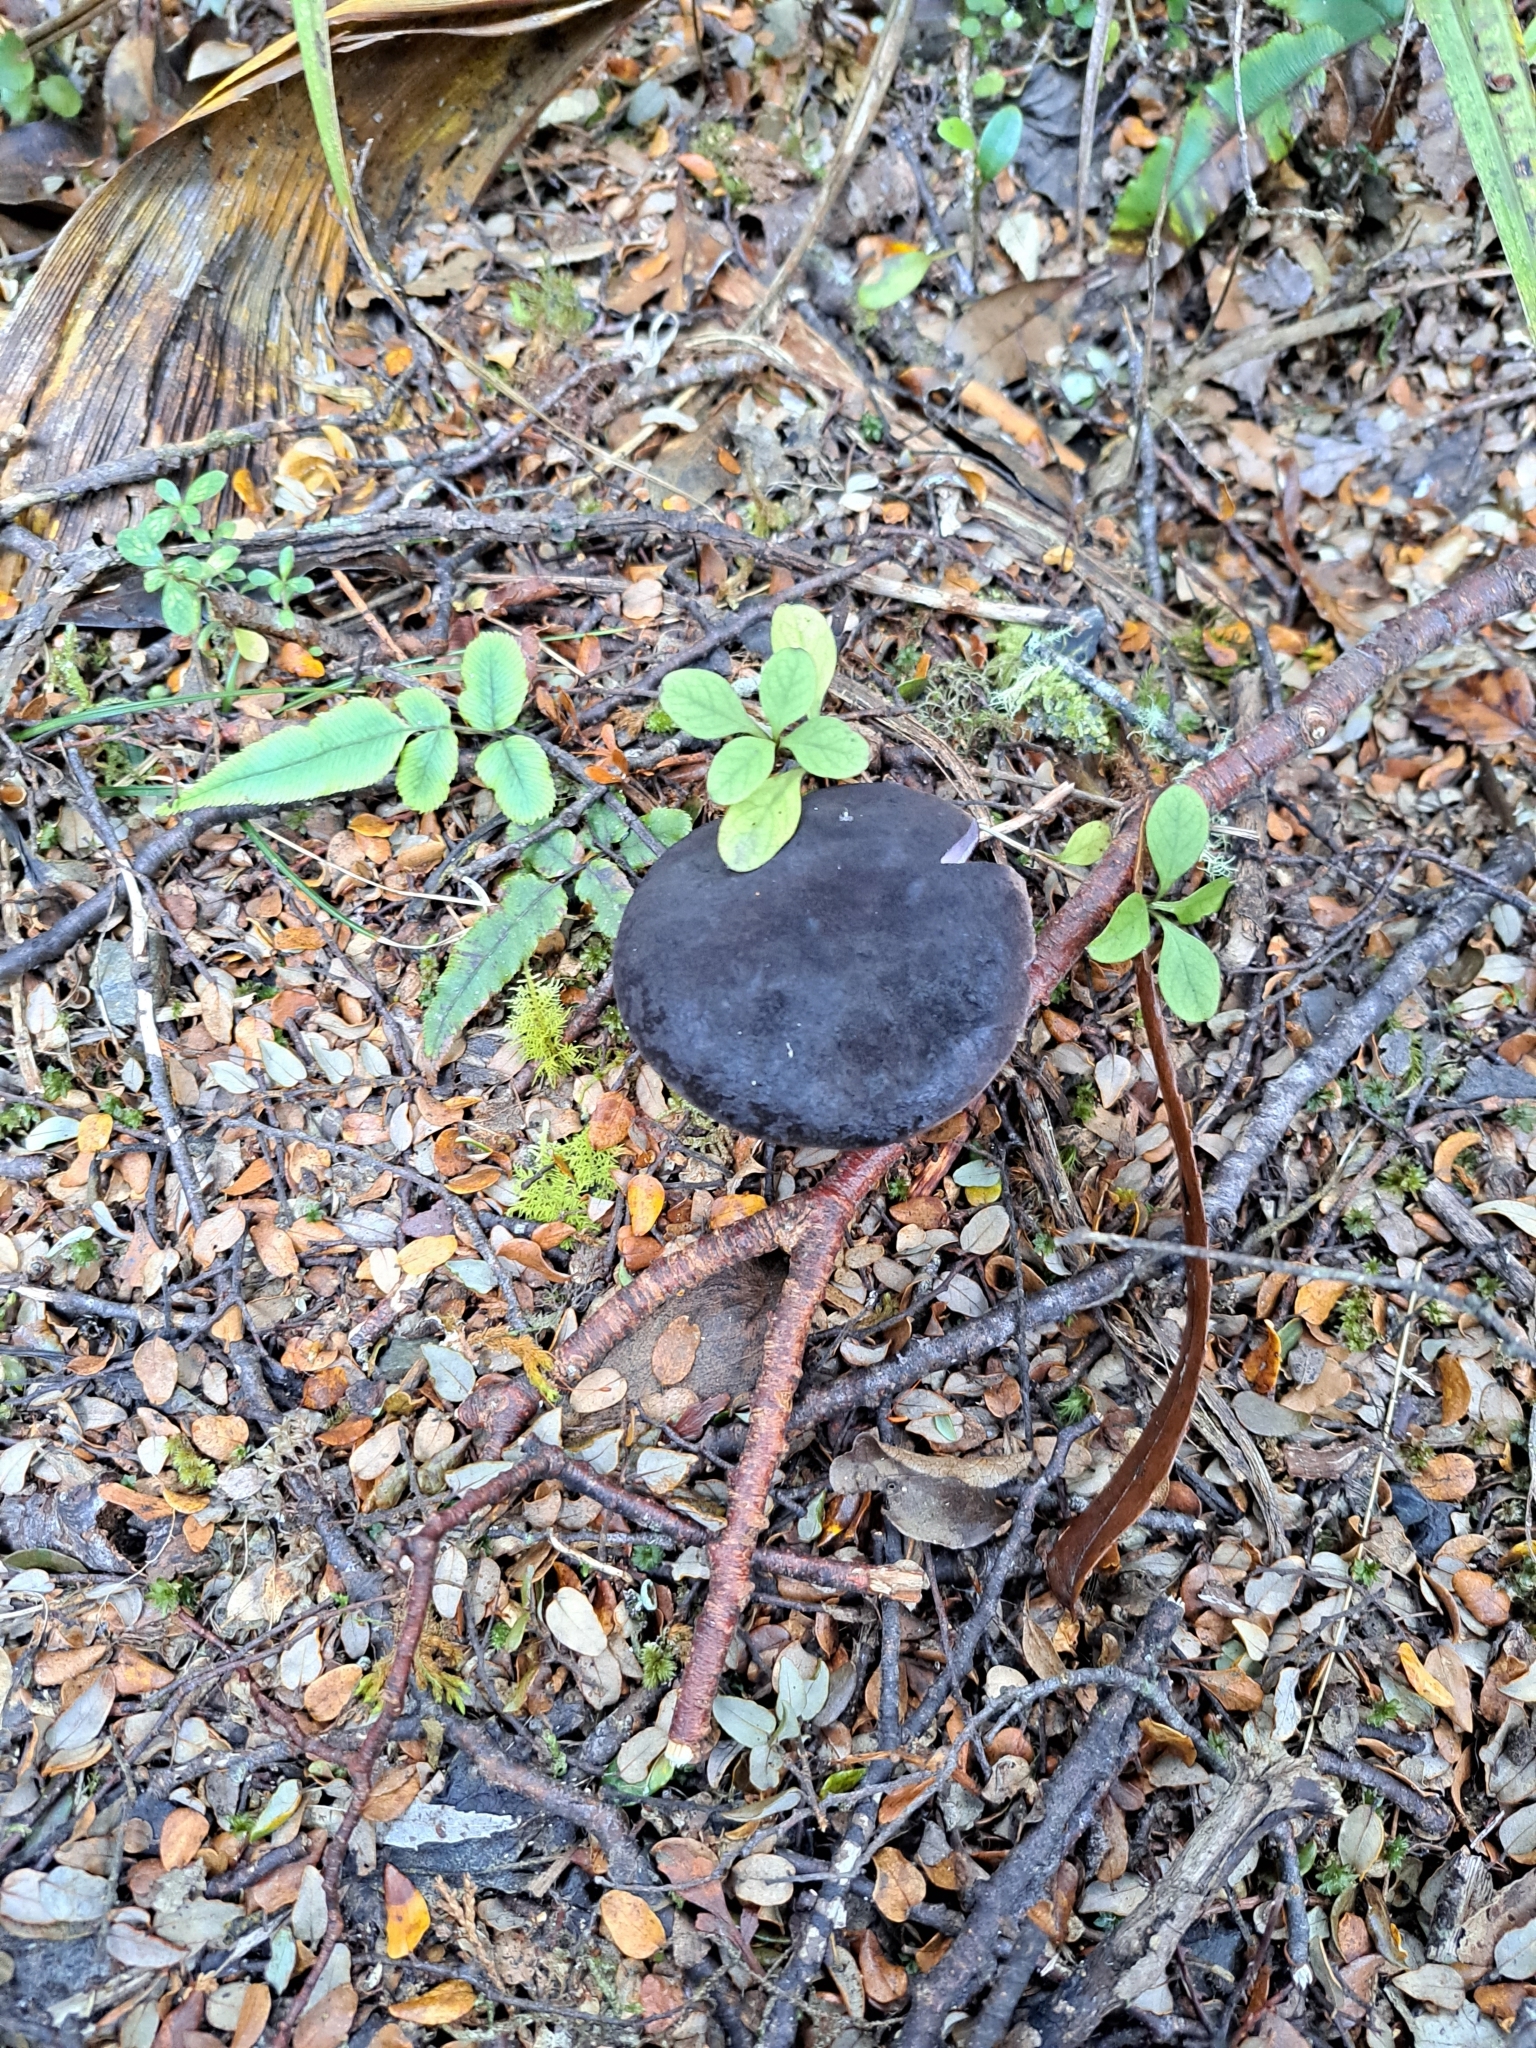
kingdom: Fungi
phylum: Basidiomycota
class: Agaricomycetes
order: Boletales
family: Boletaceae
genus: Porphyrellus
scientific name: Porphyrellus formosus
